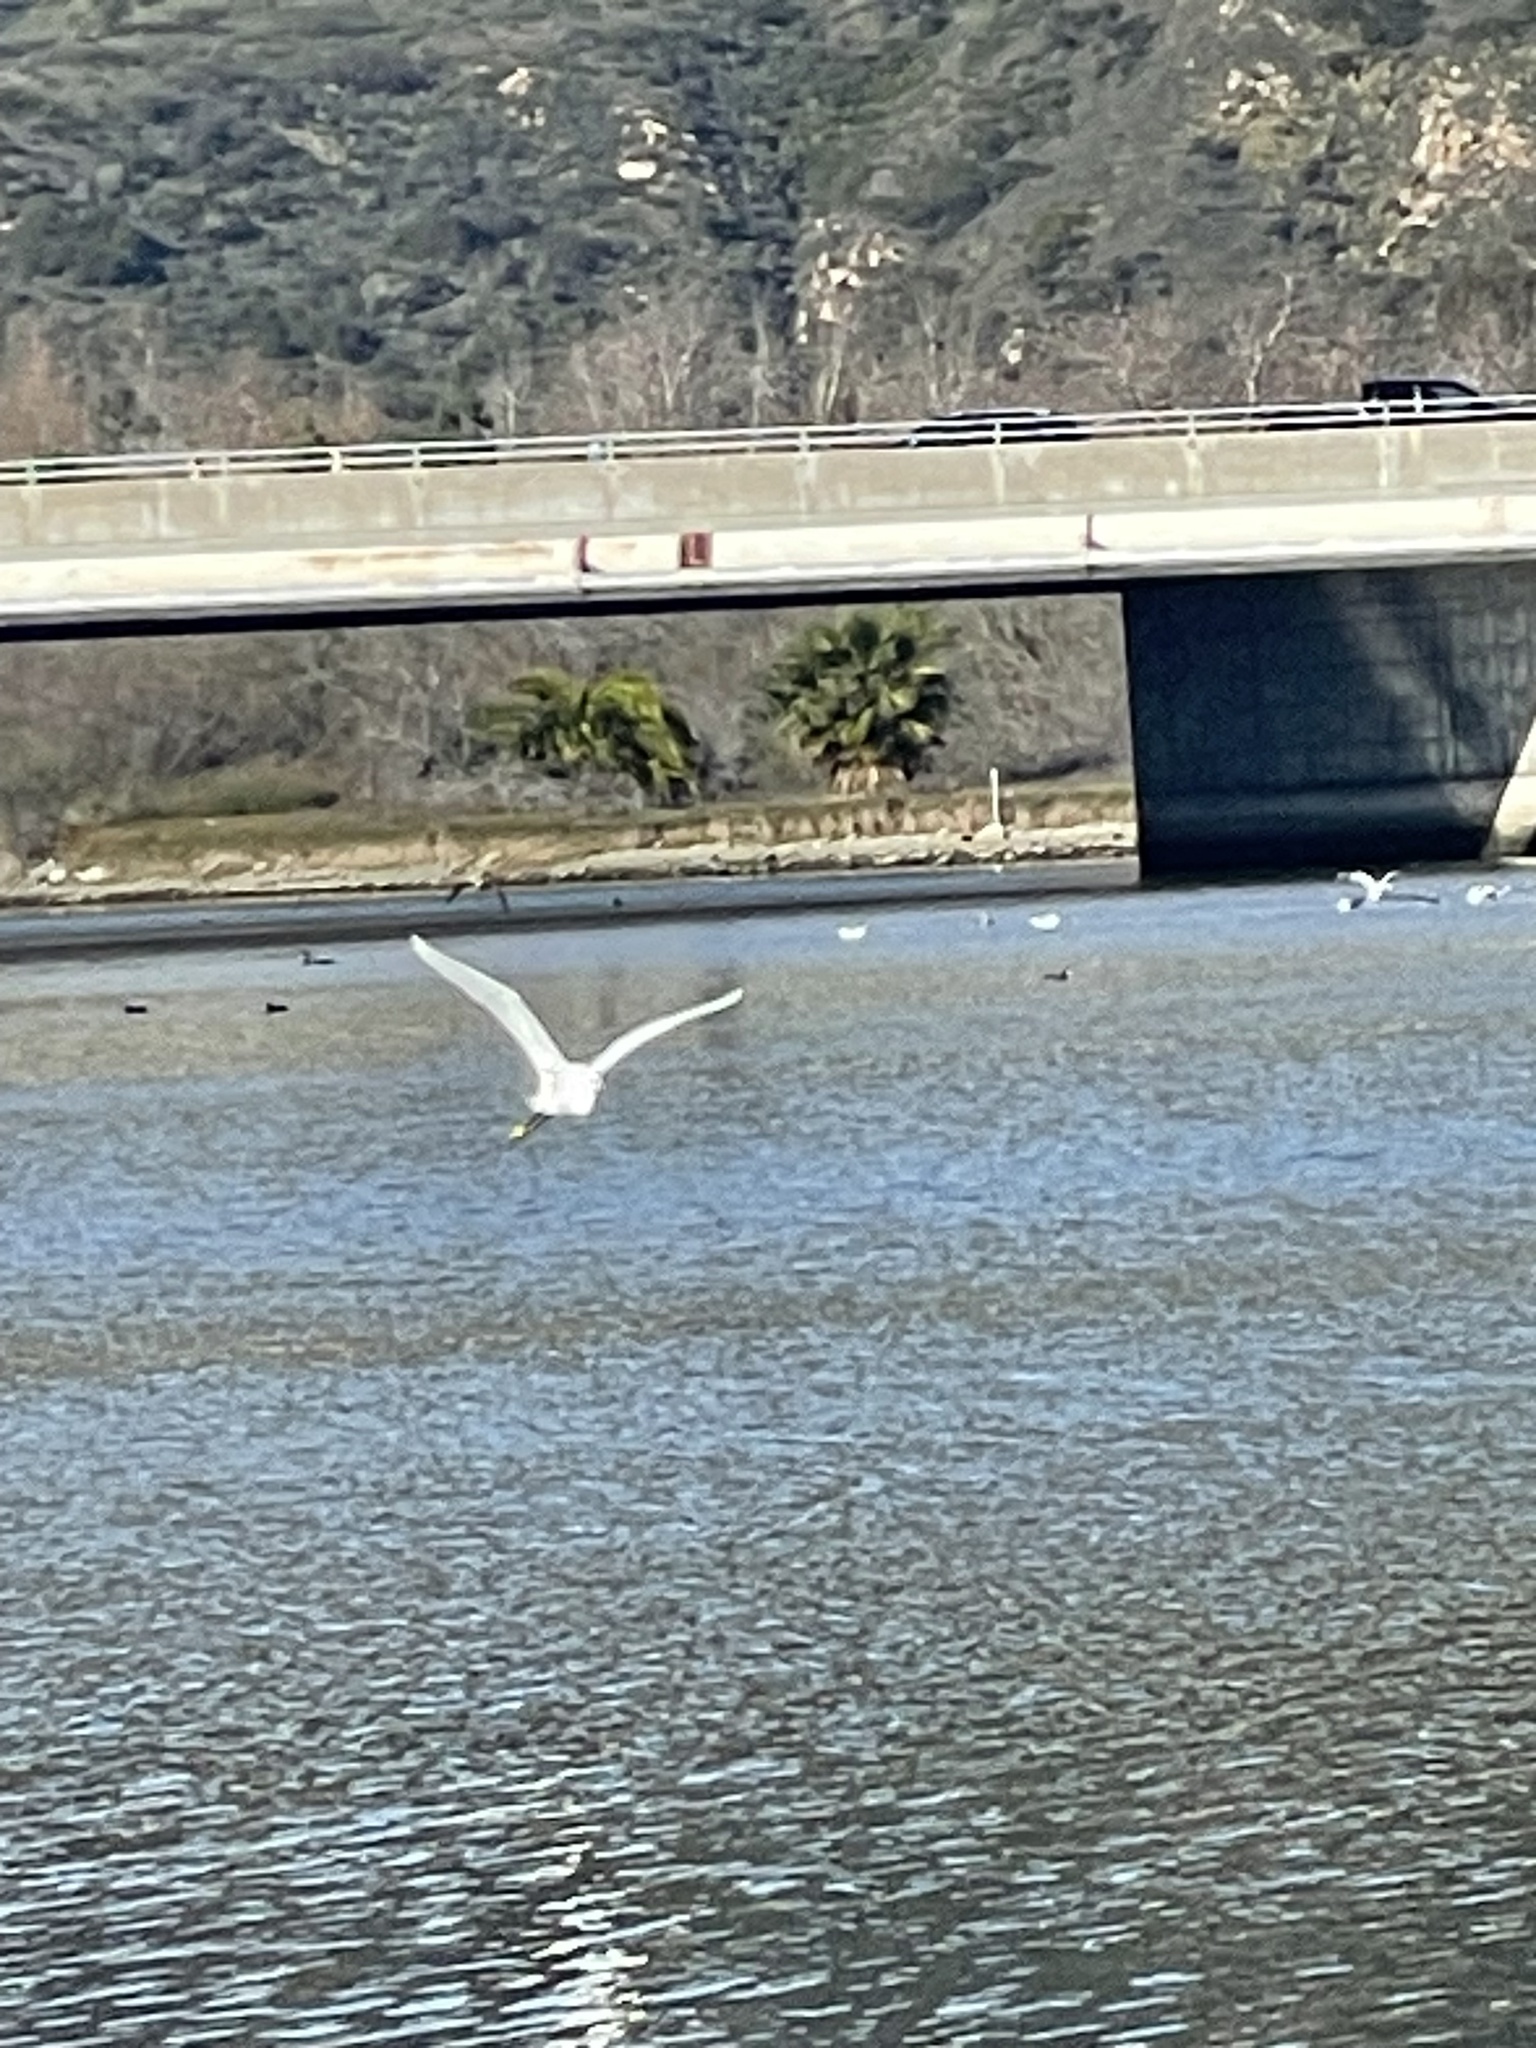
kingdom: Animalia
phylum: Chordata
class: Aves
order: Pelecaniformes
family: Ardeidae
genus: Egretta
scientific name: Egretta thula
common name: Snowy egret
